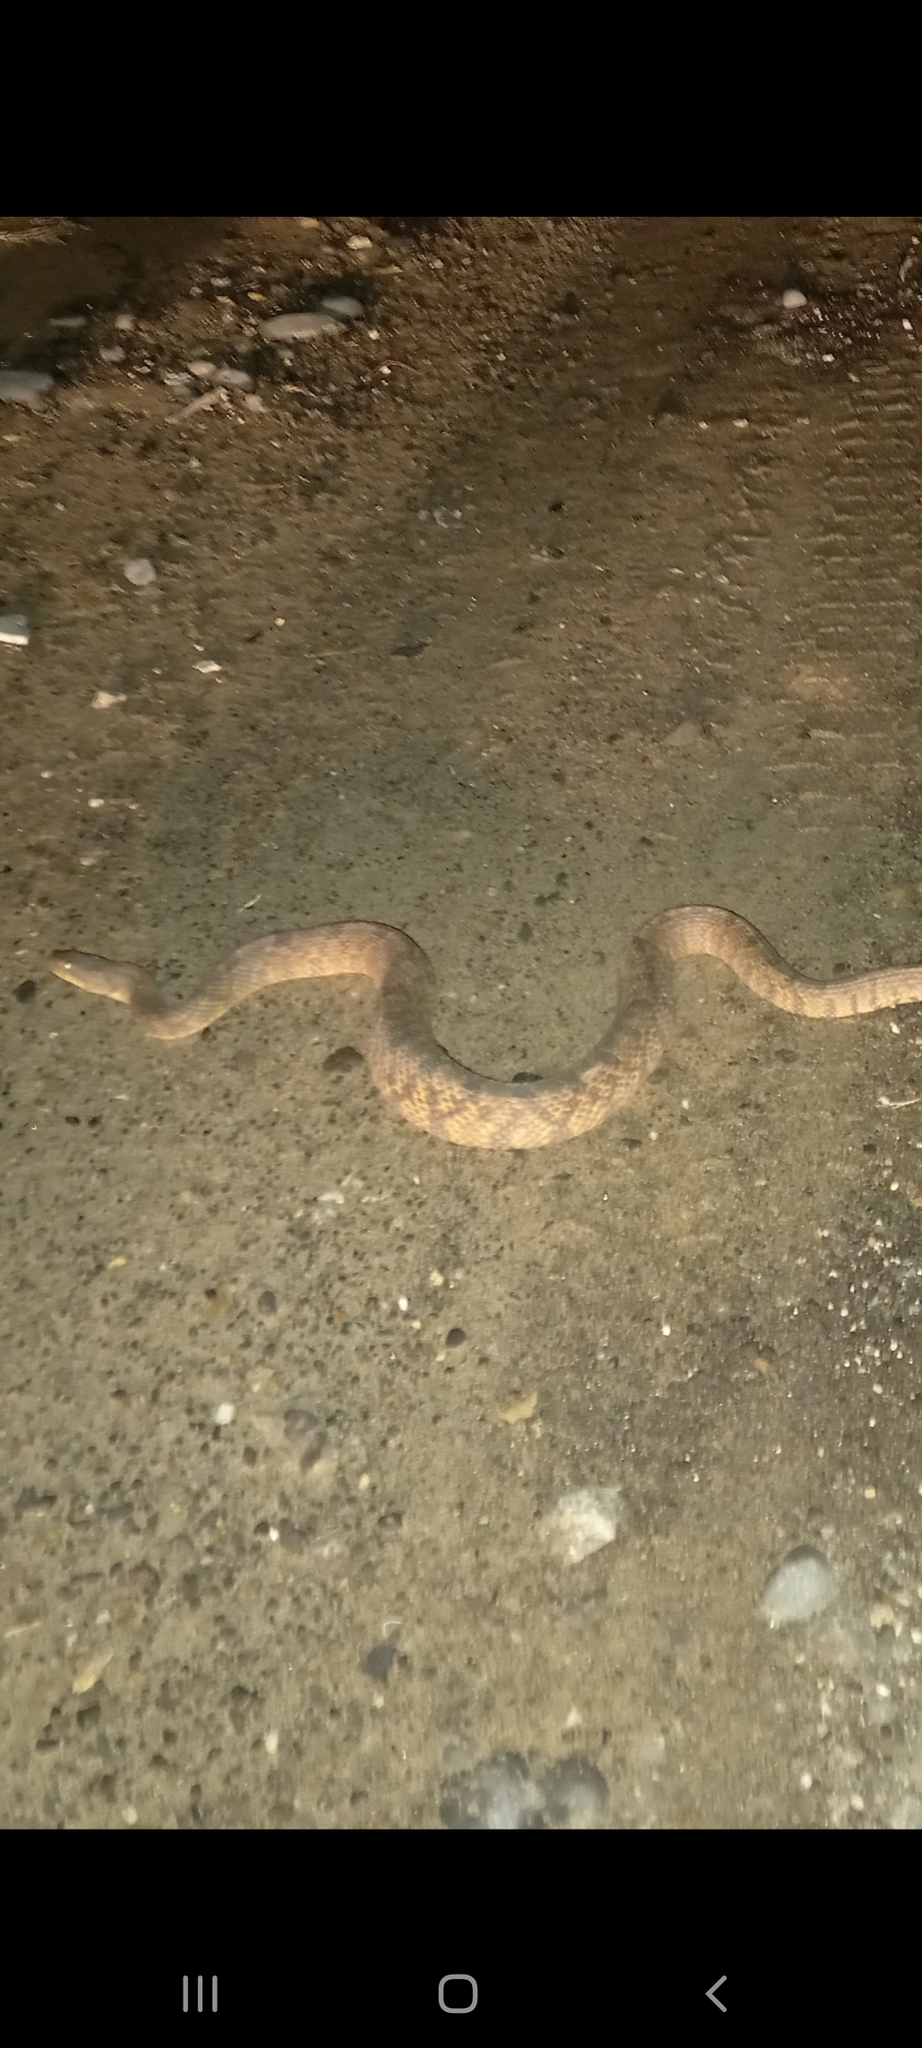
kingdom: Animalia
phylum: Chordata
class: Squamata
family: Colubridae
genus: Nerodia
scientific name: Nerodia rhombifer
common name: Diamondback water snake
